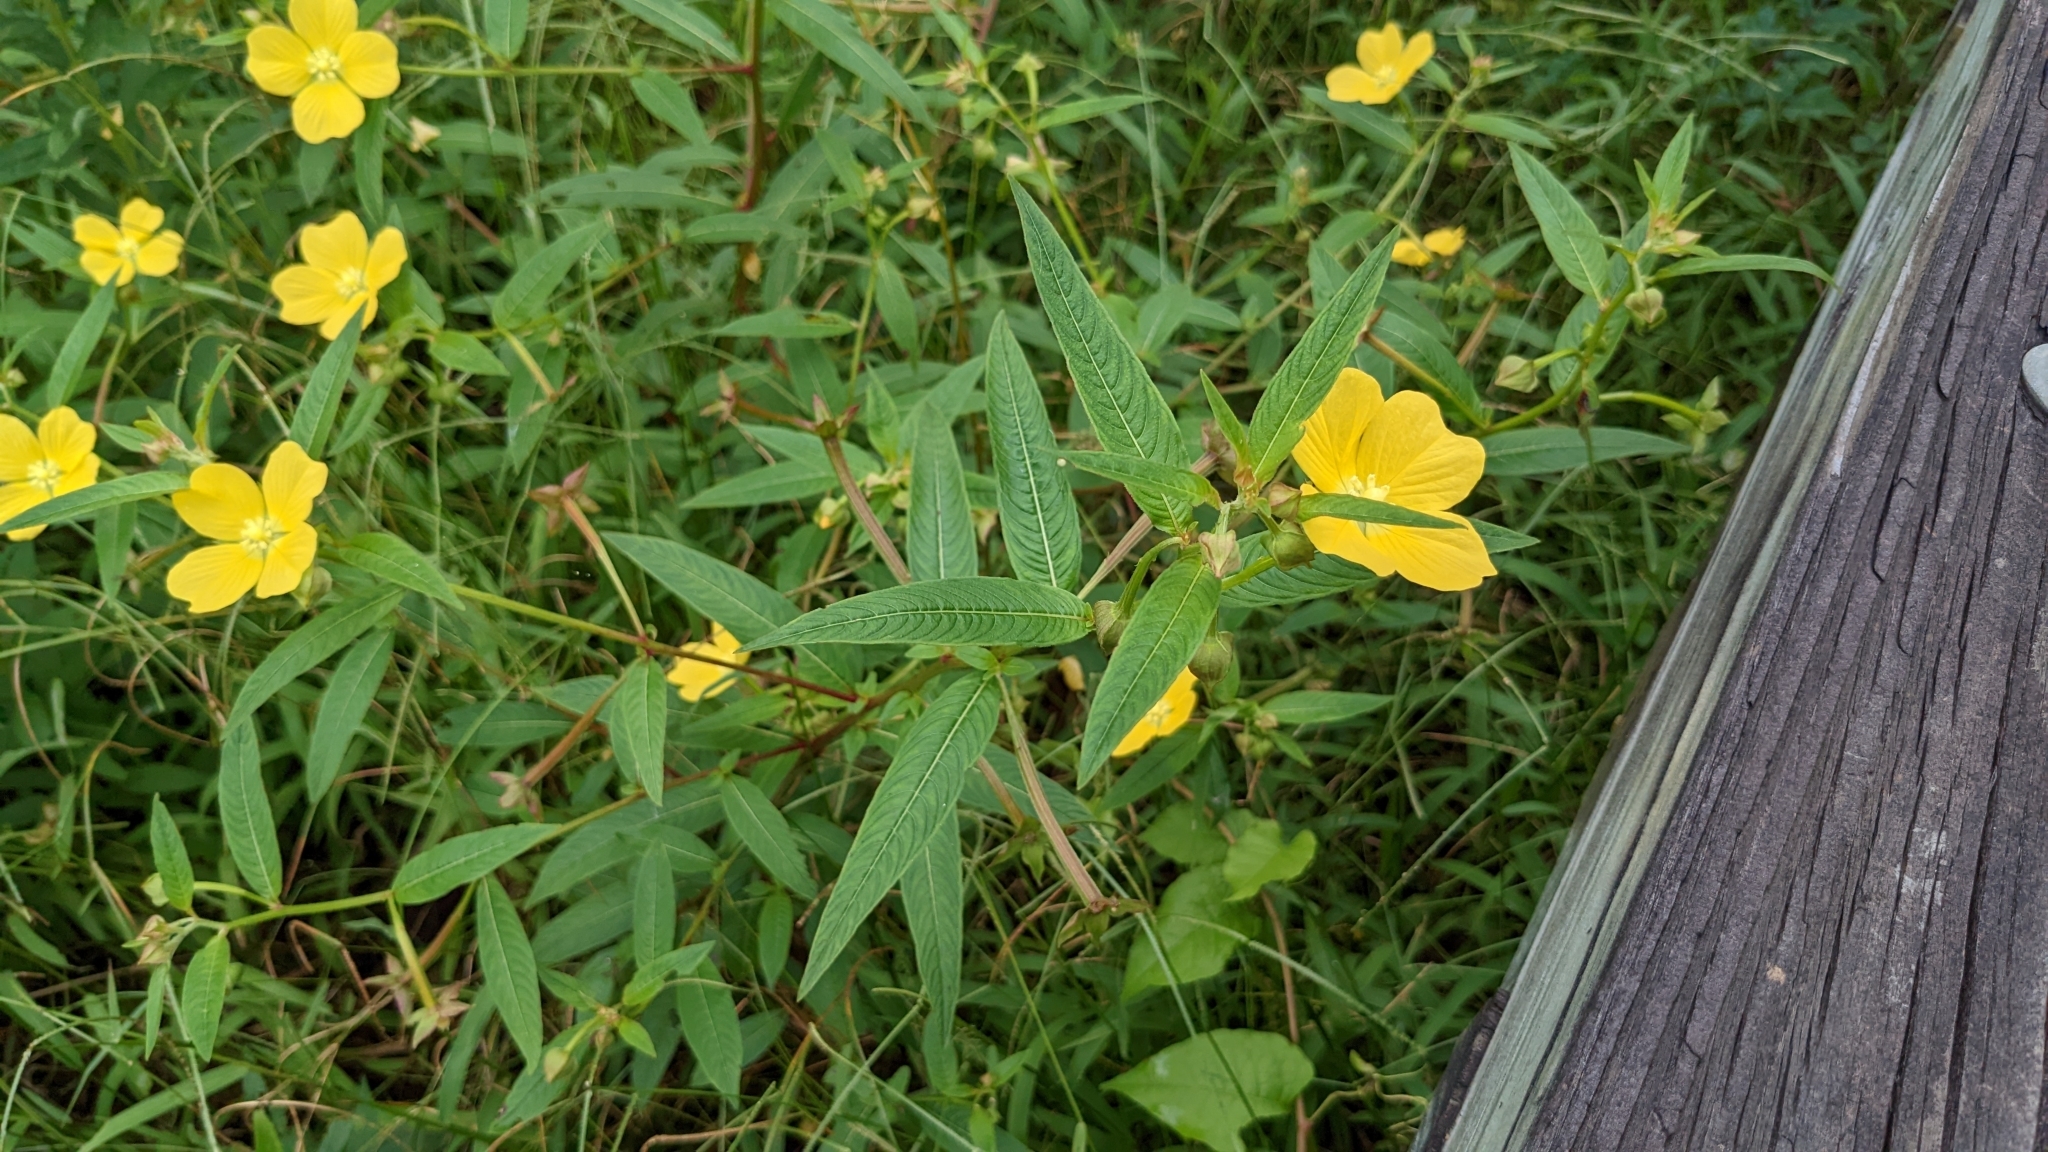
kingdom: Plantae
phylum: Tracheophyta
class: Magnoliopsida
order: Myrtales
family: Onagraceae
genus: Ludwigia
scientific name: Ludwigia octovalvis
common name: Water-primrose
